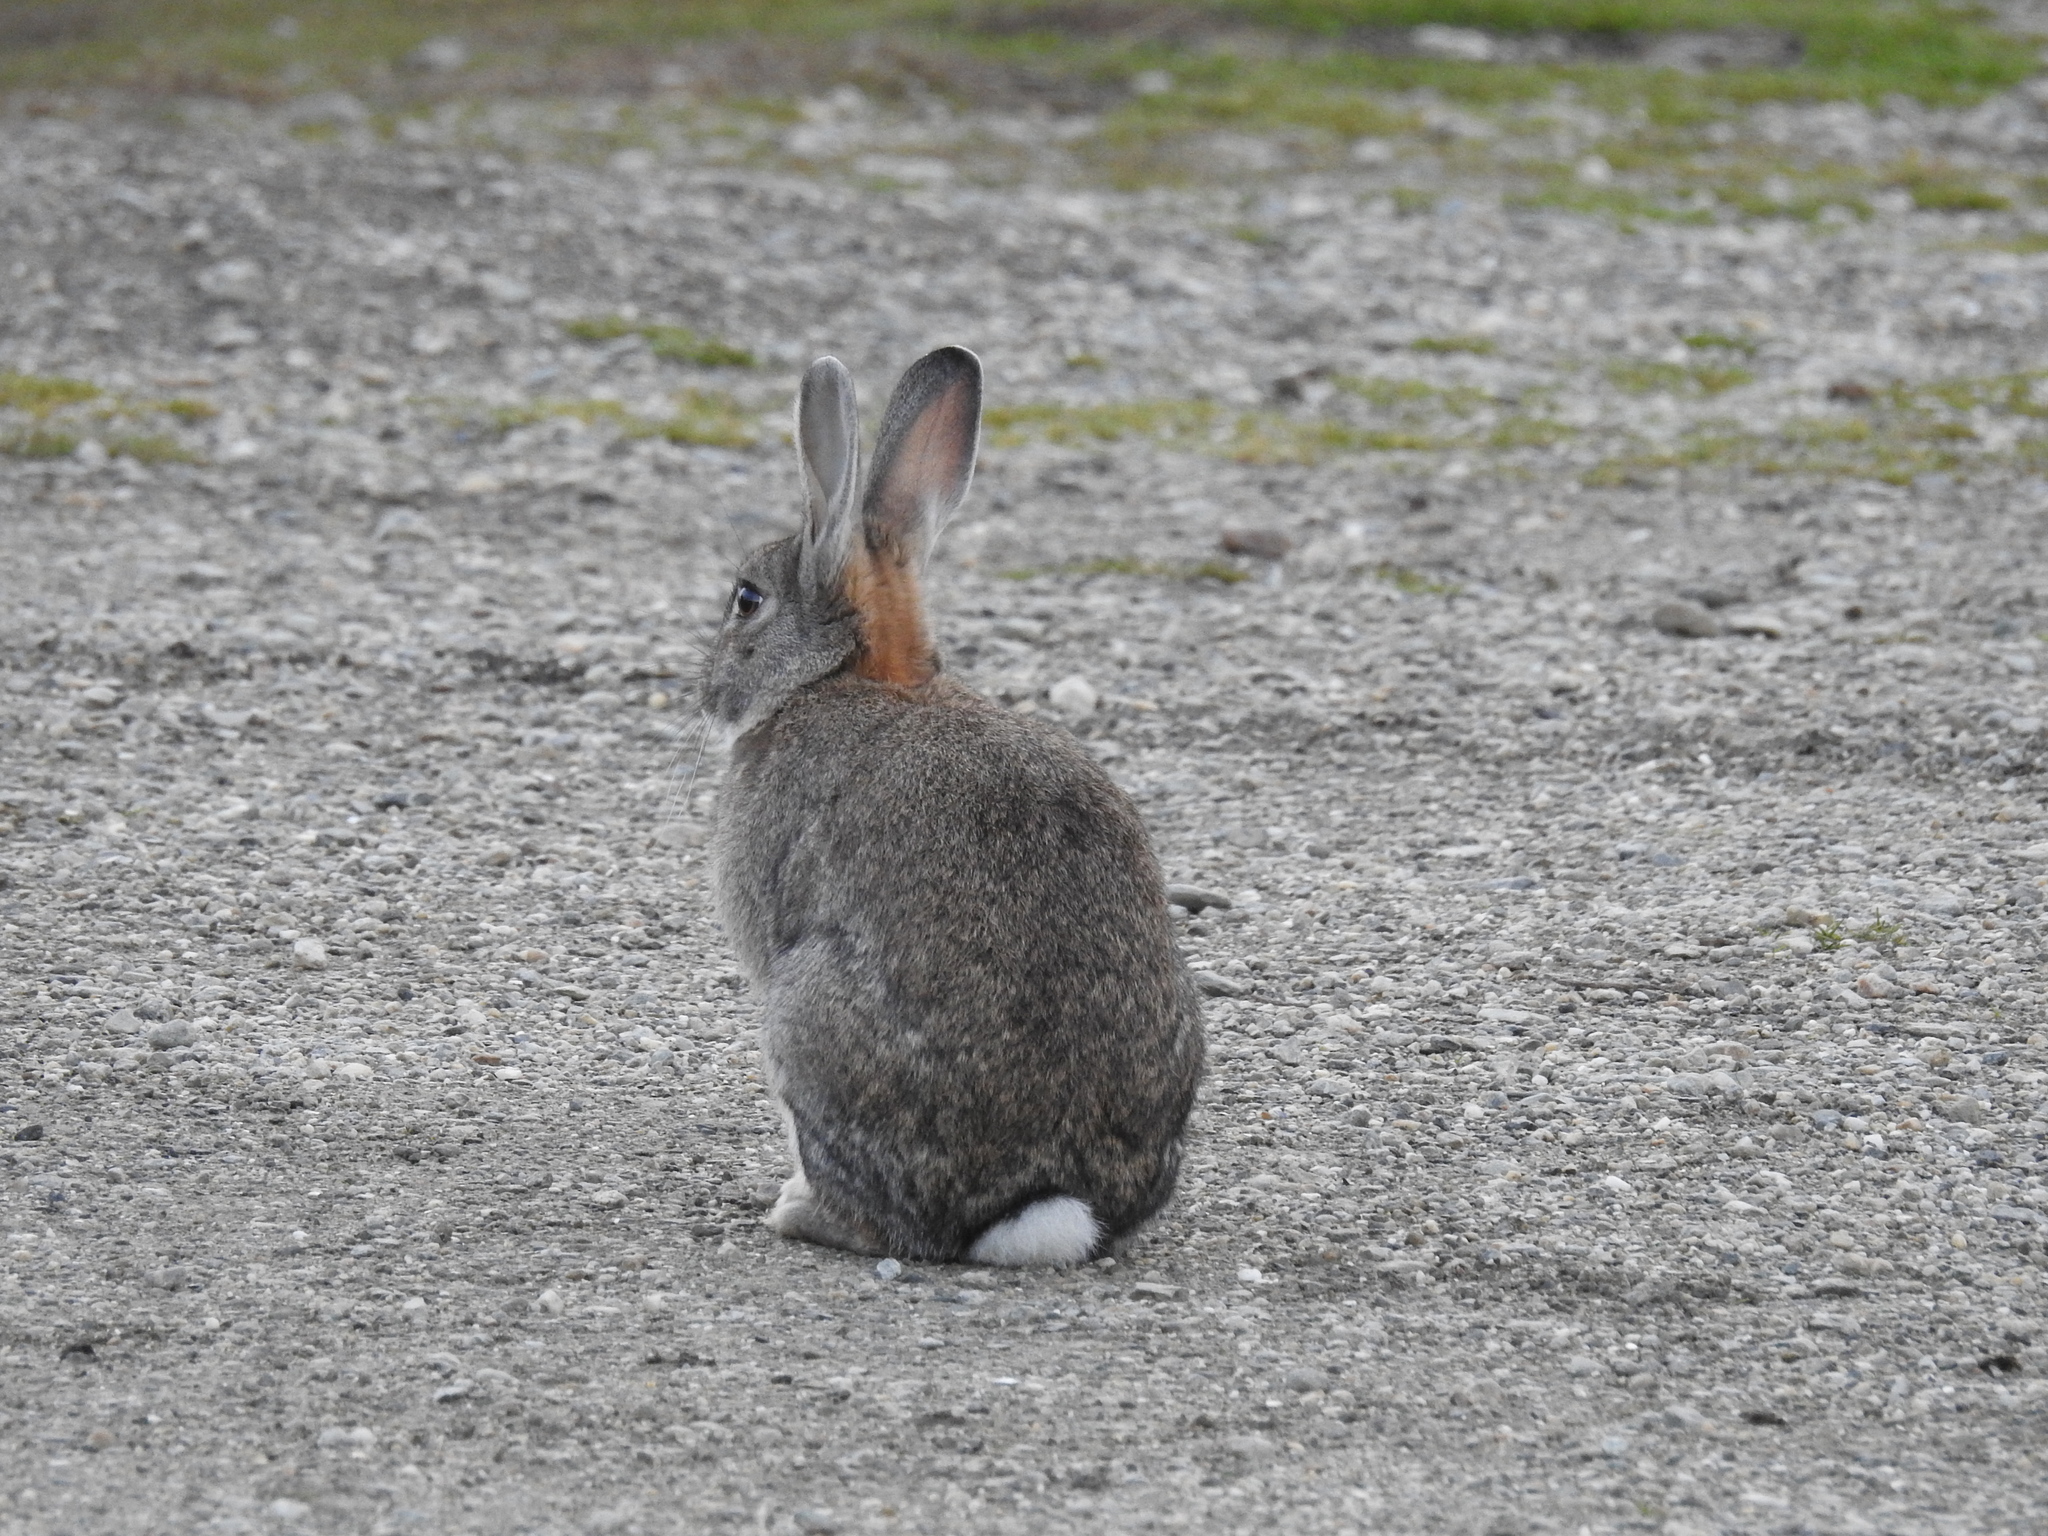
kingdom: Animalia
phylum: Chordata
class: Mammalia
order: Lagomorpha
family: Leporidae
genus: Oryctolagus
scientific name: Oryctolagus cuniculus
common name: European rabbit
